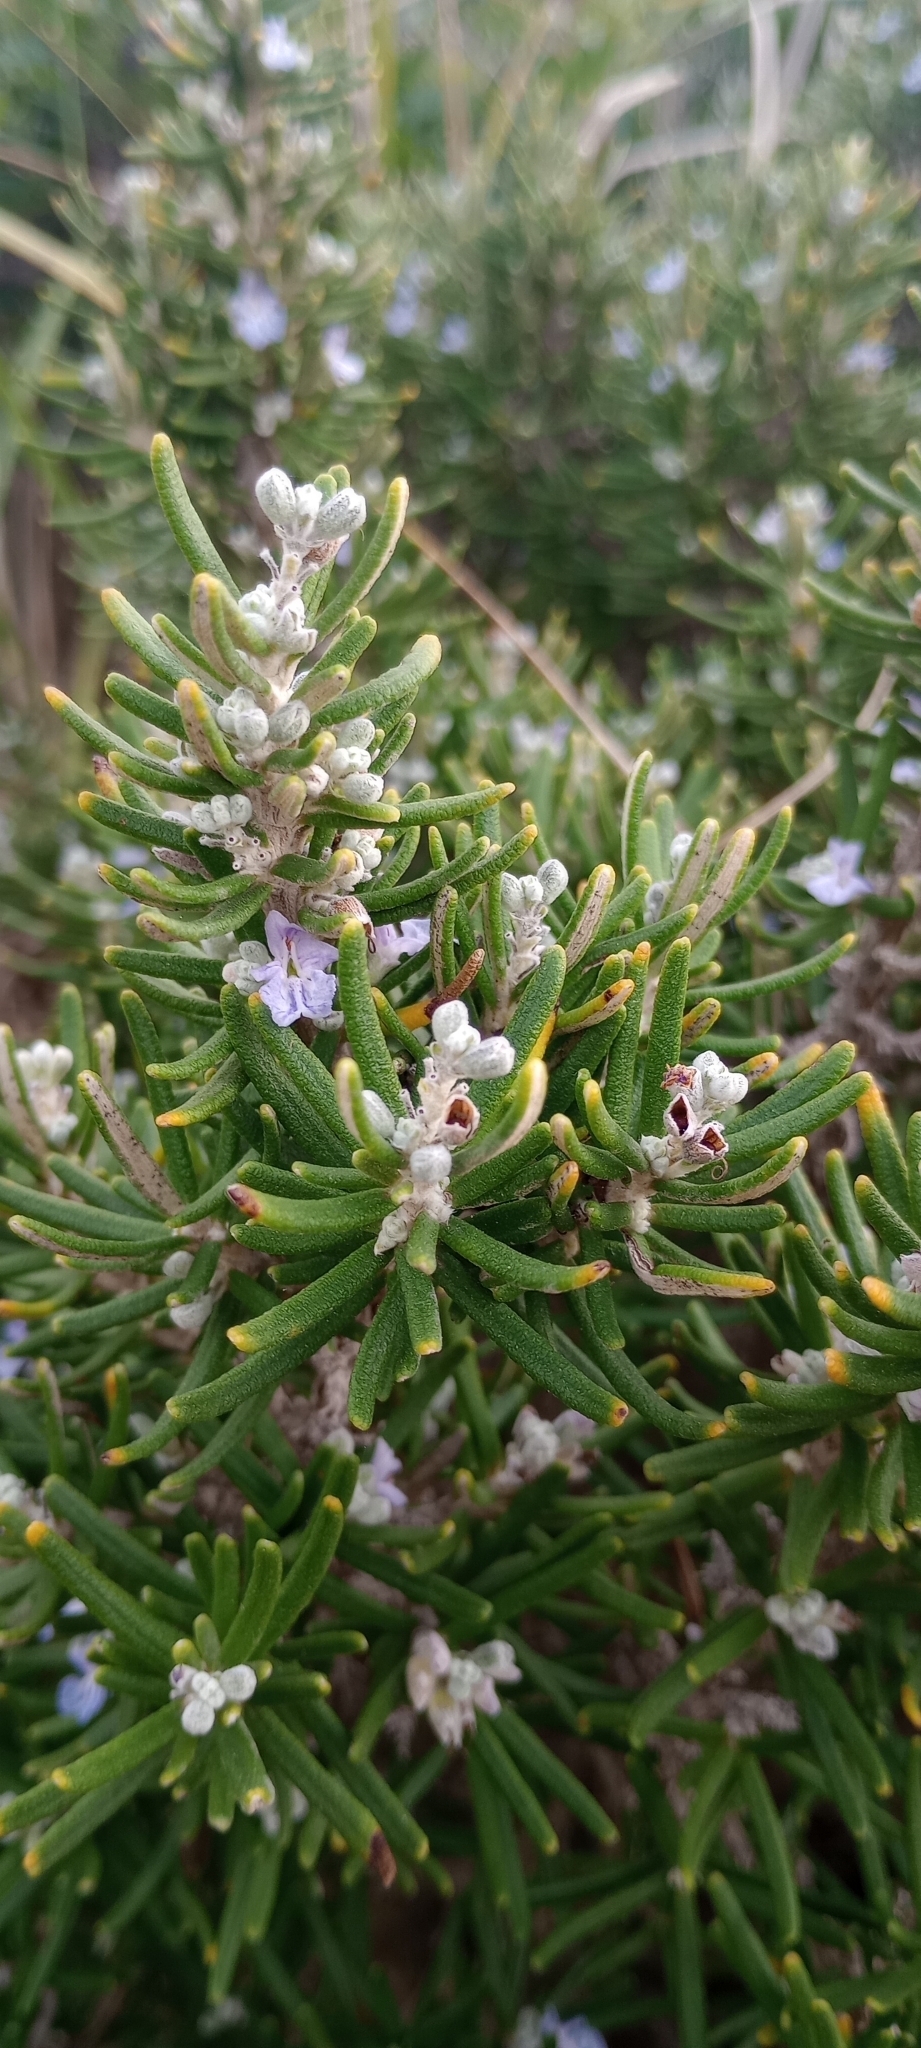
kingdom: Plantae
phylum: Tracheophyta
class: Magnoliopsida
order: Lamiales
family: Lamiaceae
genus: Salvia
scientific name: Salvia rosmarinus
